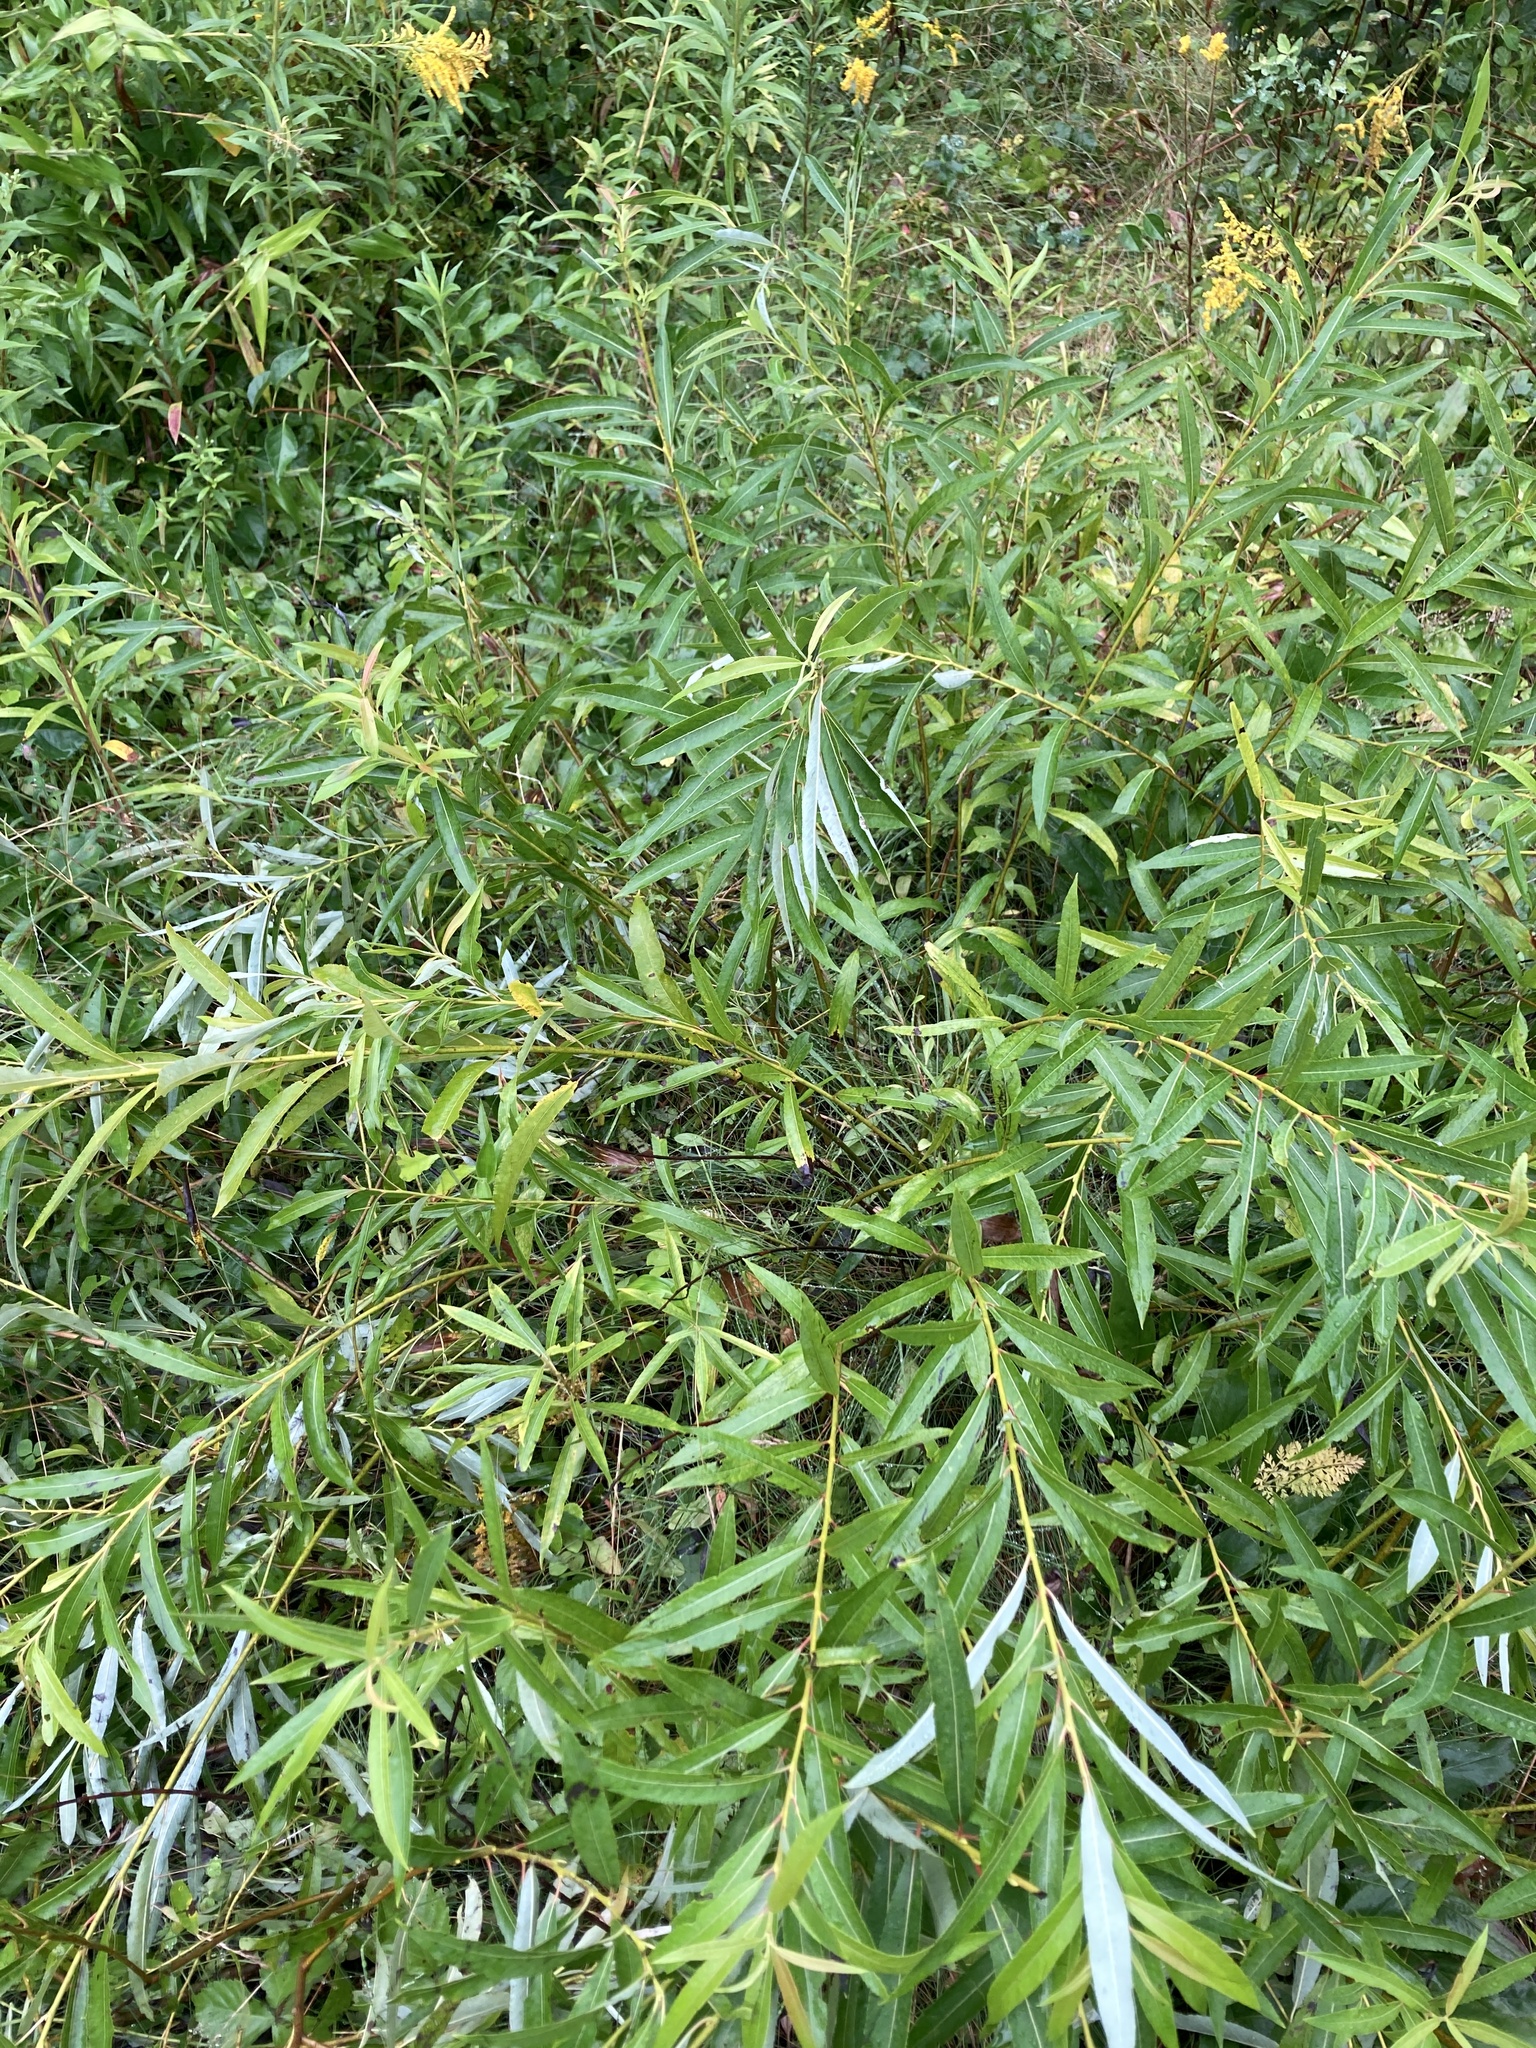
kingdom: Plantae
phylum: Tracheophyta
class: Magnoliopsida
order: Malpighiales
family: Salicaceae
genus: Salix
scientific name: Salix petiolaris
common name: Slender willow
